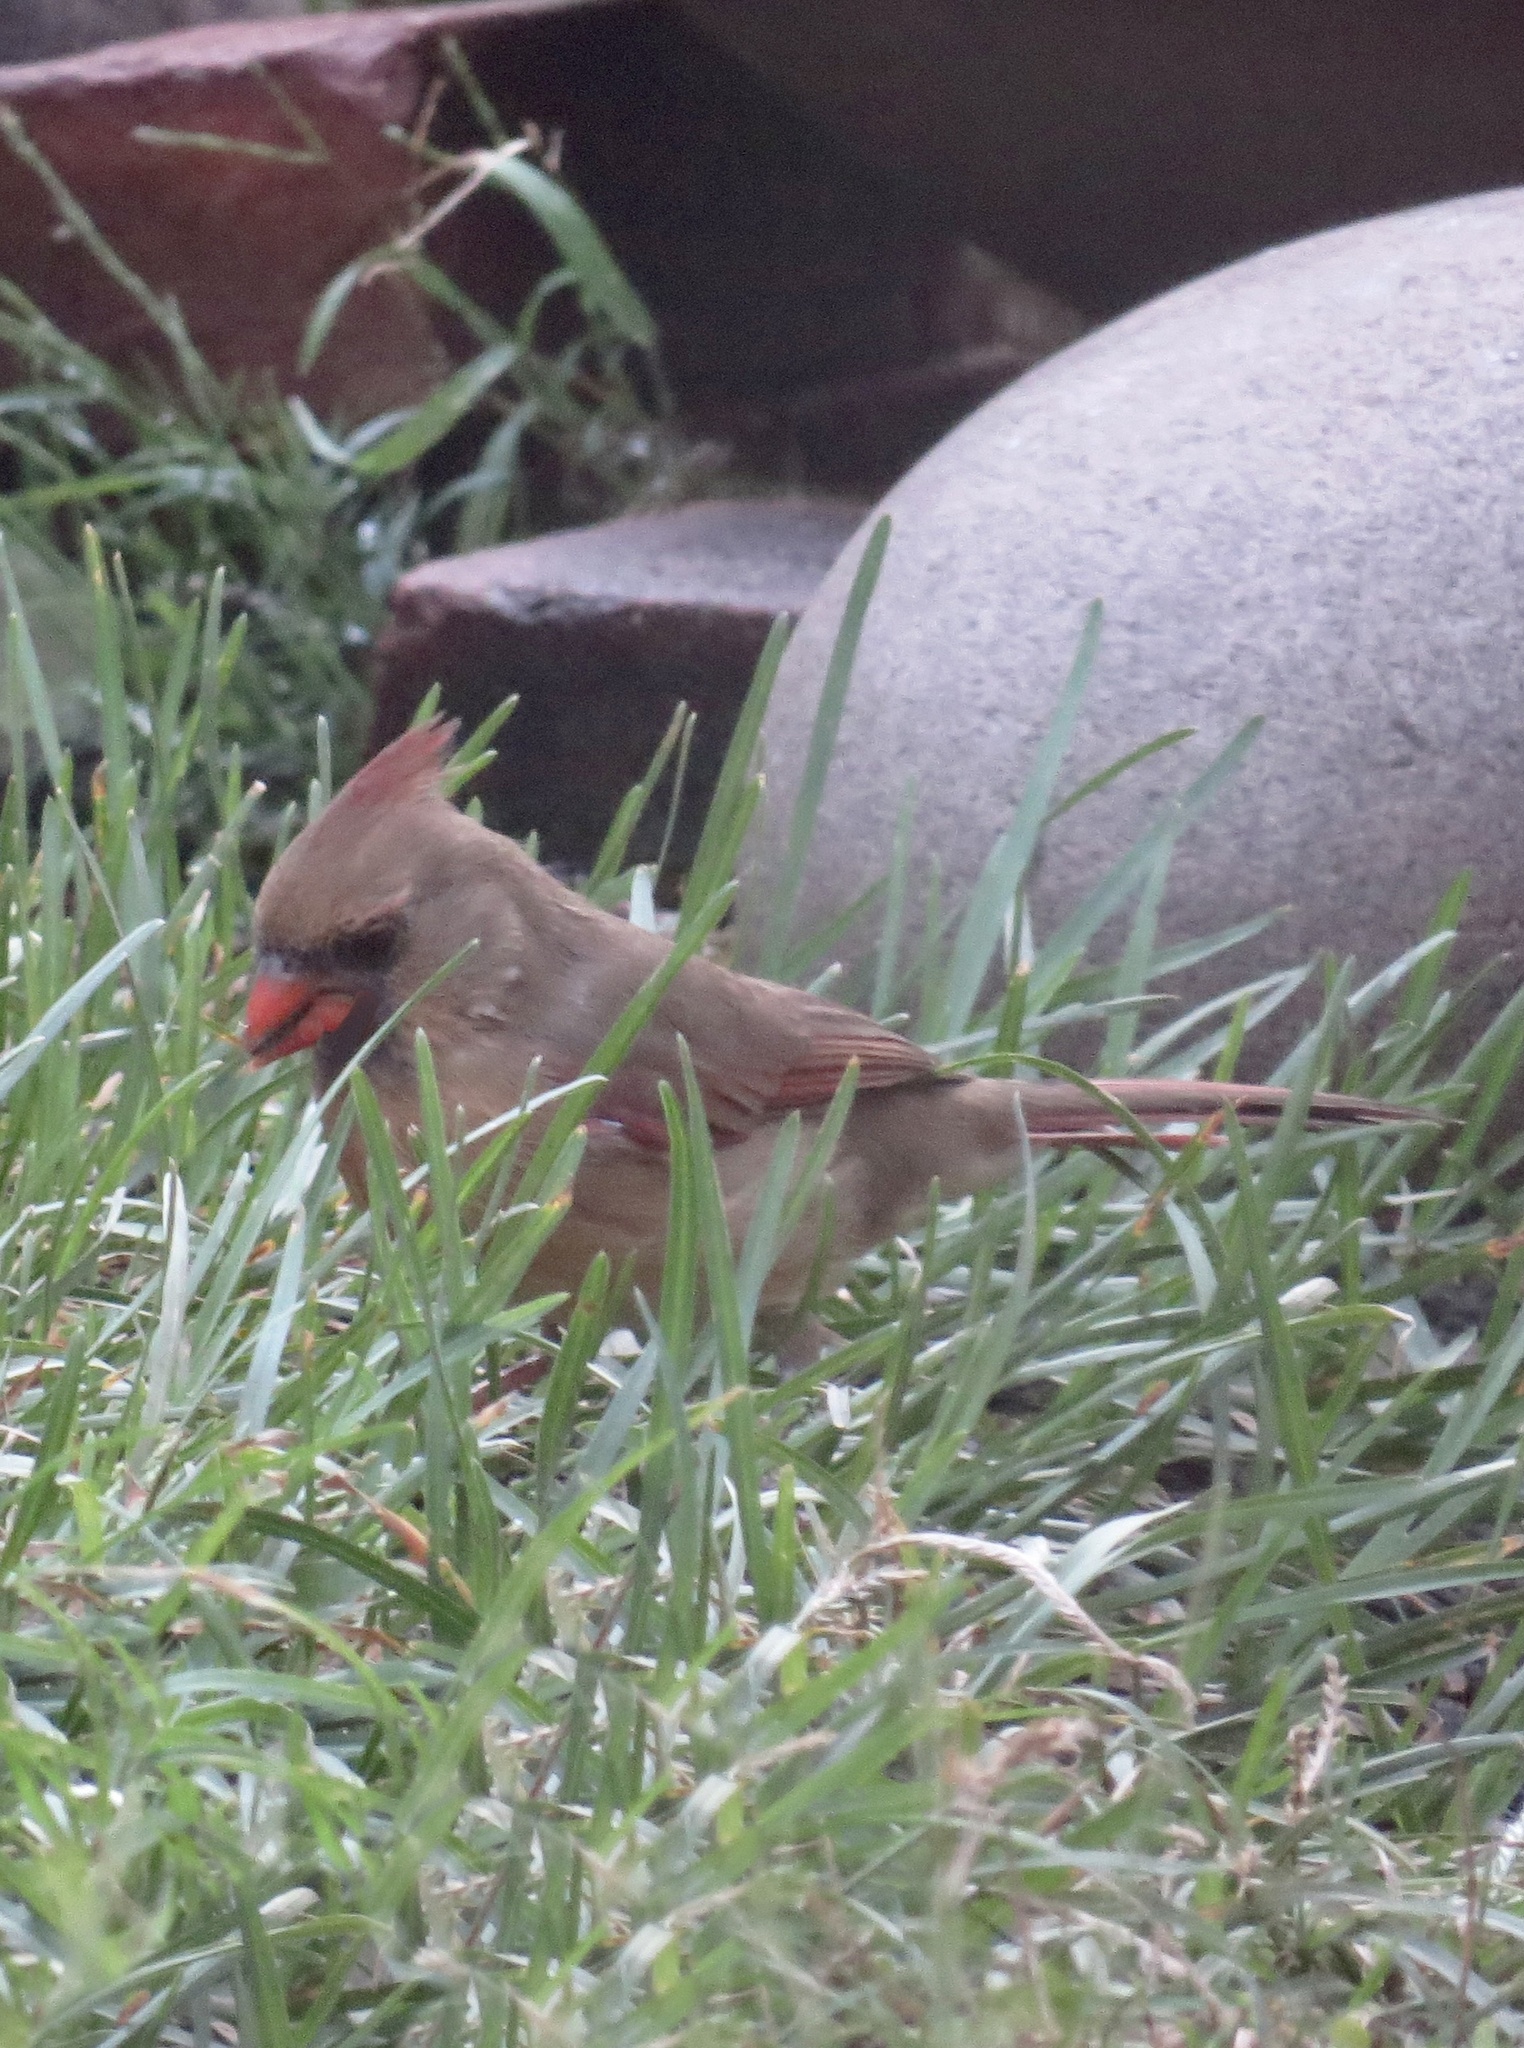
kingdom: Animalia
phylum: Chordata
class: Aves
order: Passeriformes
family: Cardinalidae
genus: Cardinalis
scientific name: Cardinalis cardinalis
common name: Northern cardinal
